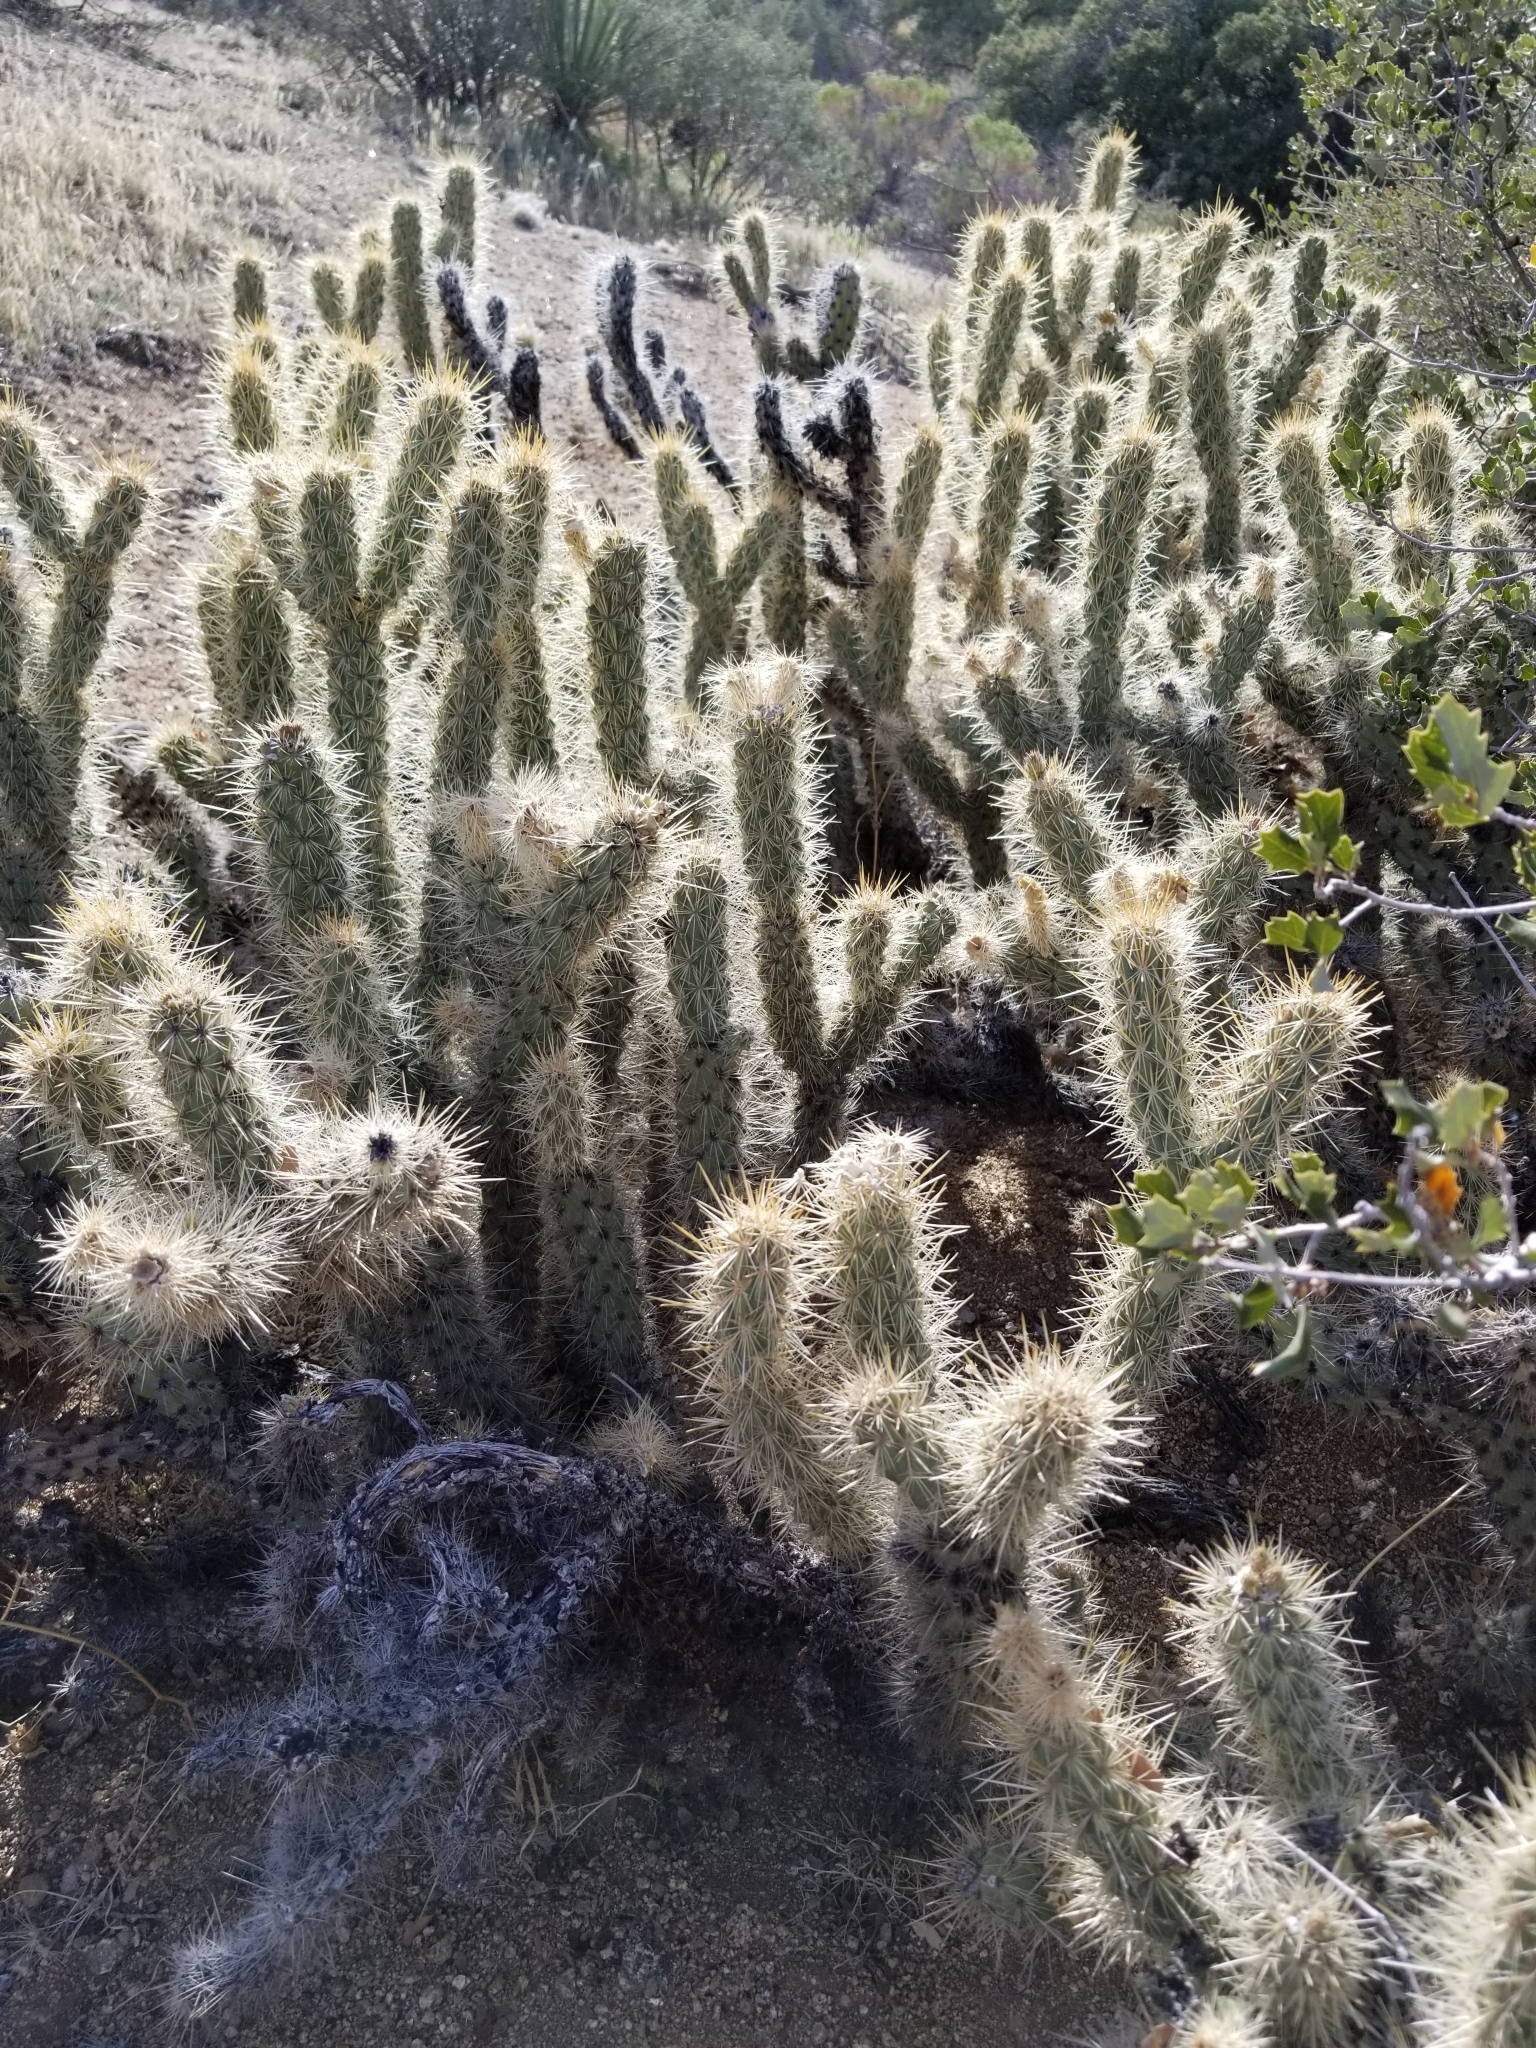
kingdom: Plantae
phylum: Tracheophyta
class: Magnoliopsida
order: Caryophyllales
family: Cactaceae
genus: Cylindropuntia
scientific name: Cylindropuntia ganderi
